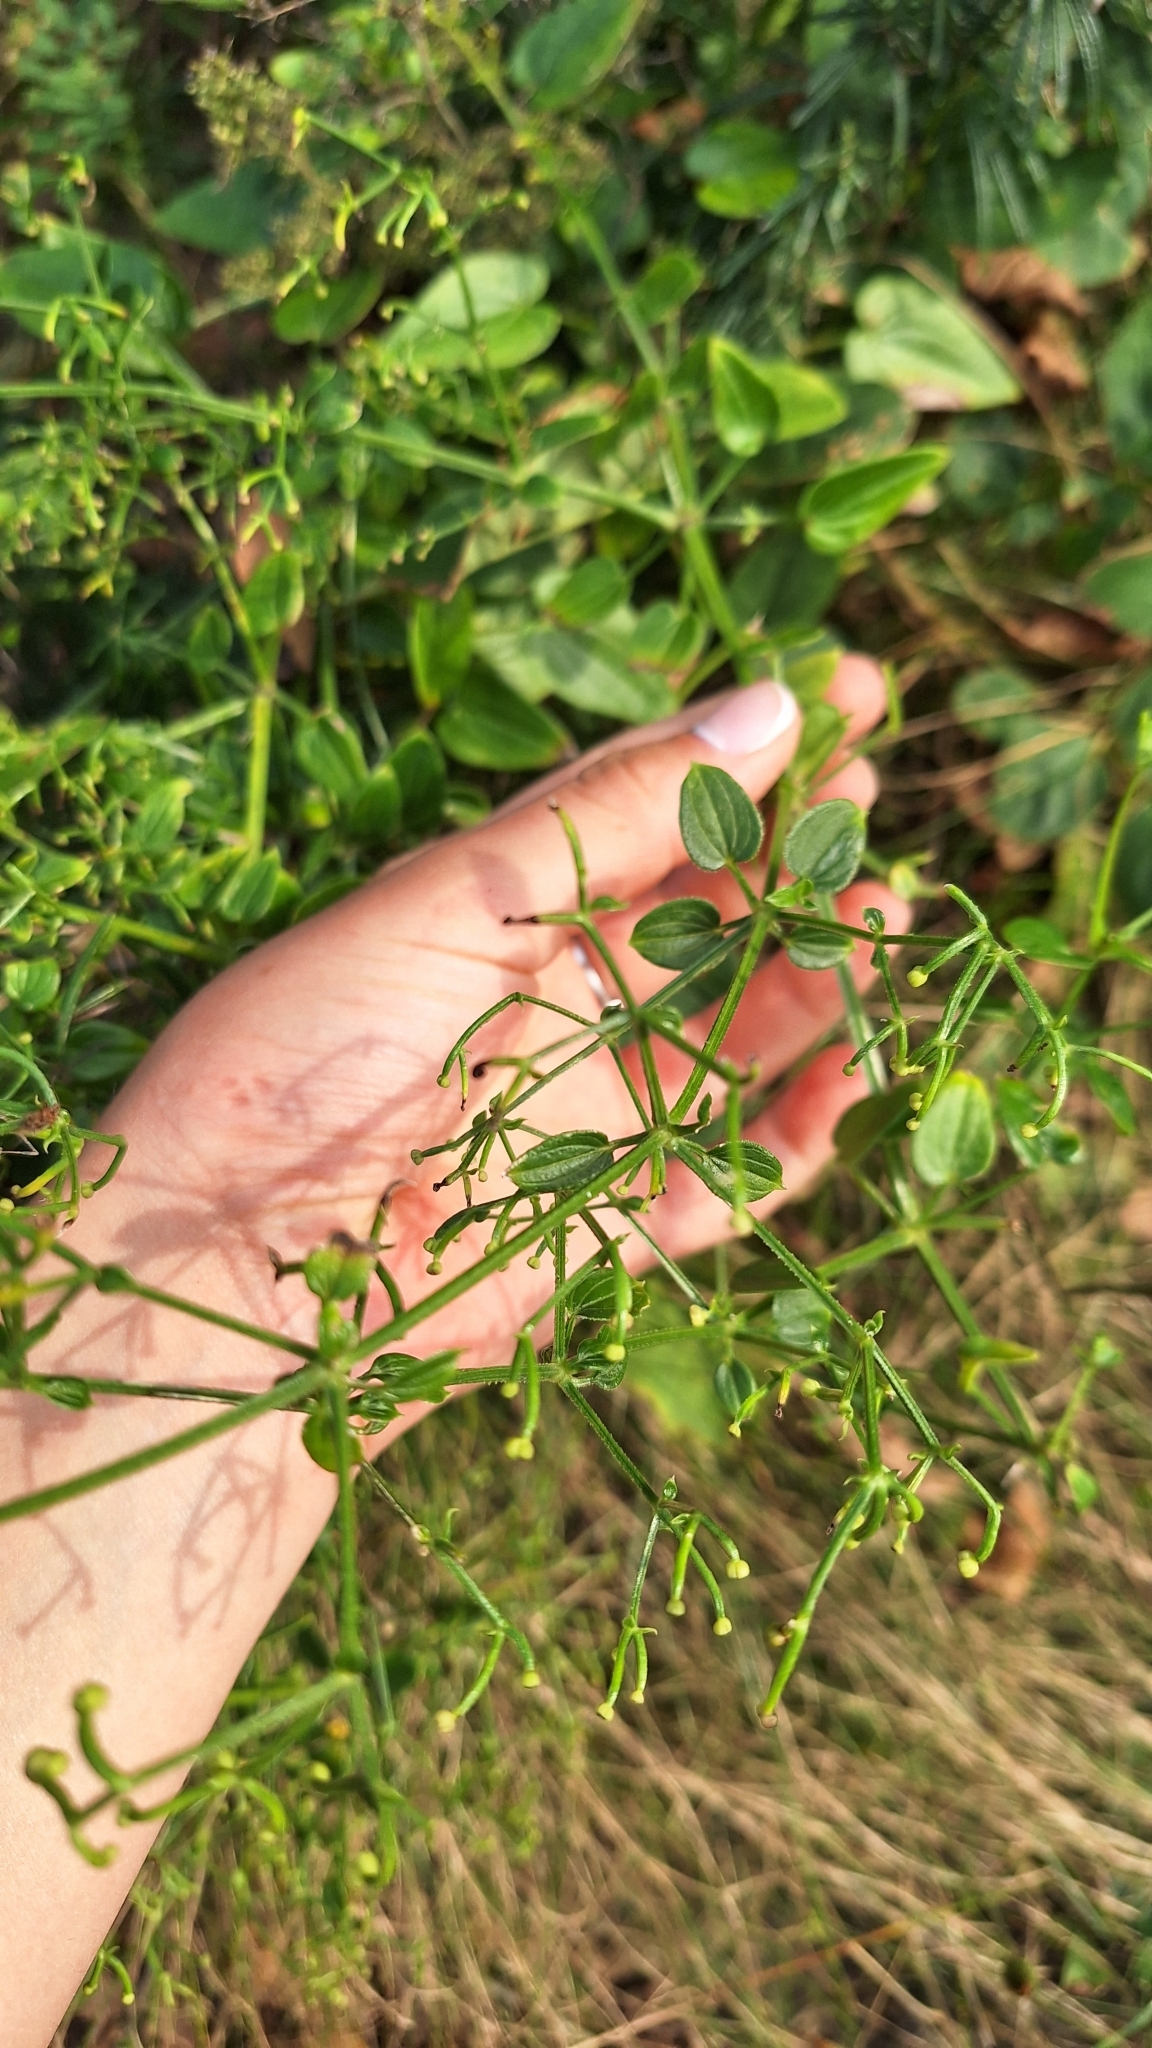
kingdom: Plantae
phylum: Tracheophyta
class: Magnoliopsida
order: Gentianales
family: Rubiaceae
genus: Rubia
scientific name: Rubia cordifolia
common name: Indian madder
